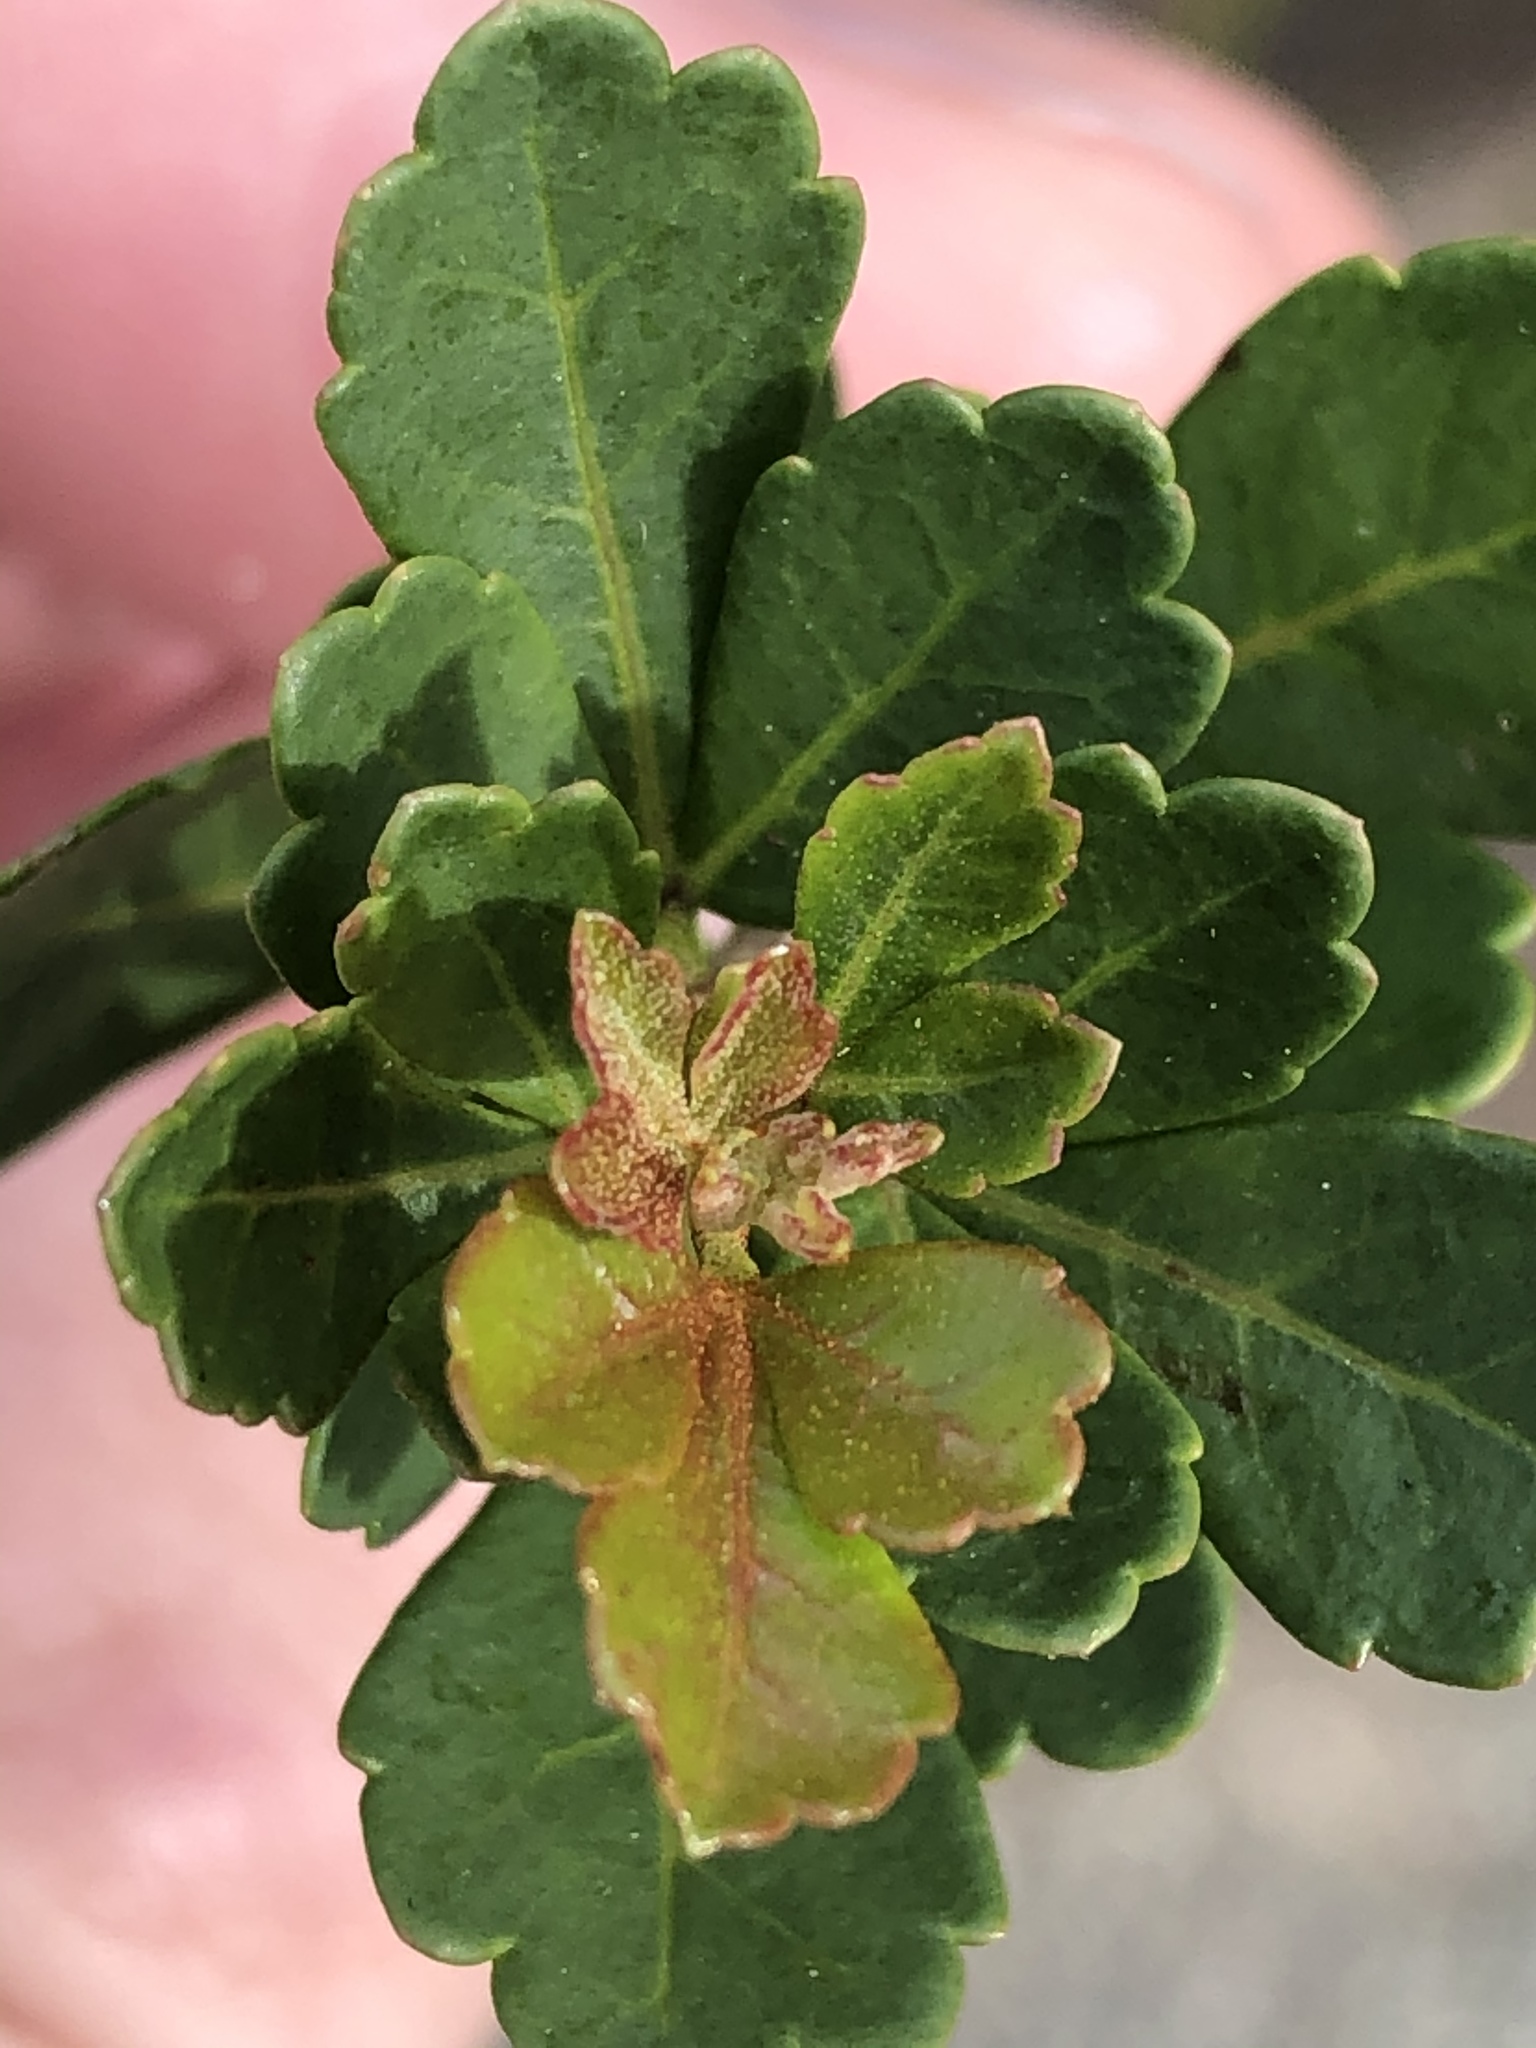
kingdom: Plantae
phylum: Tracheophyta
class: Magnoliopsida
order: Sapindales
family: Anacardiaceae
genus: Searsia
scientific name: Searsia crenata
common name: Crowberry
